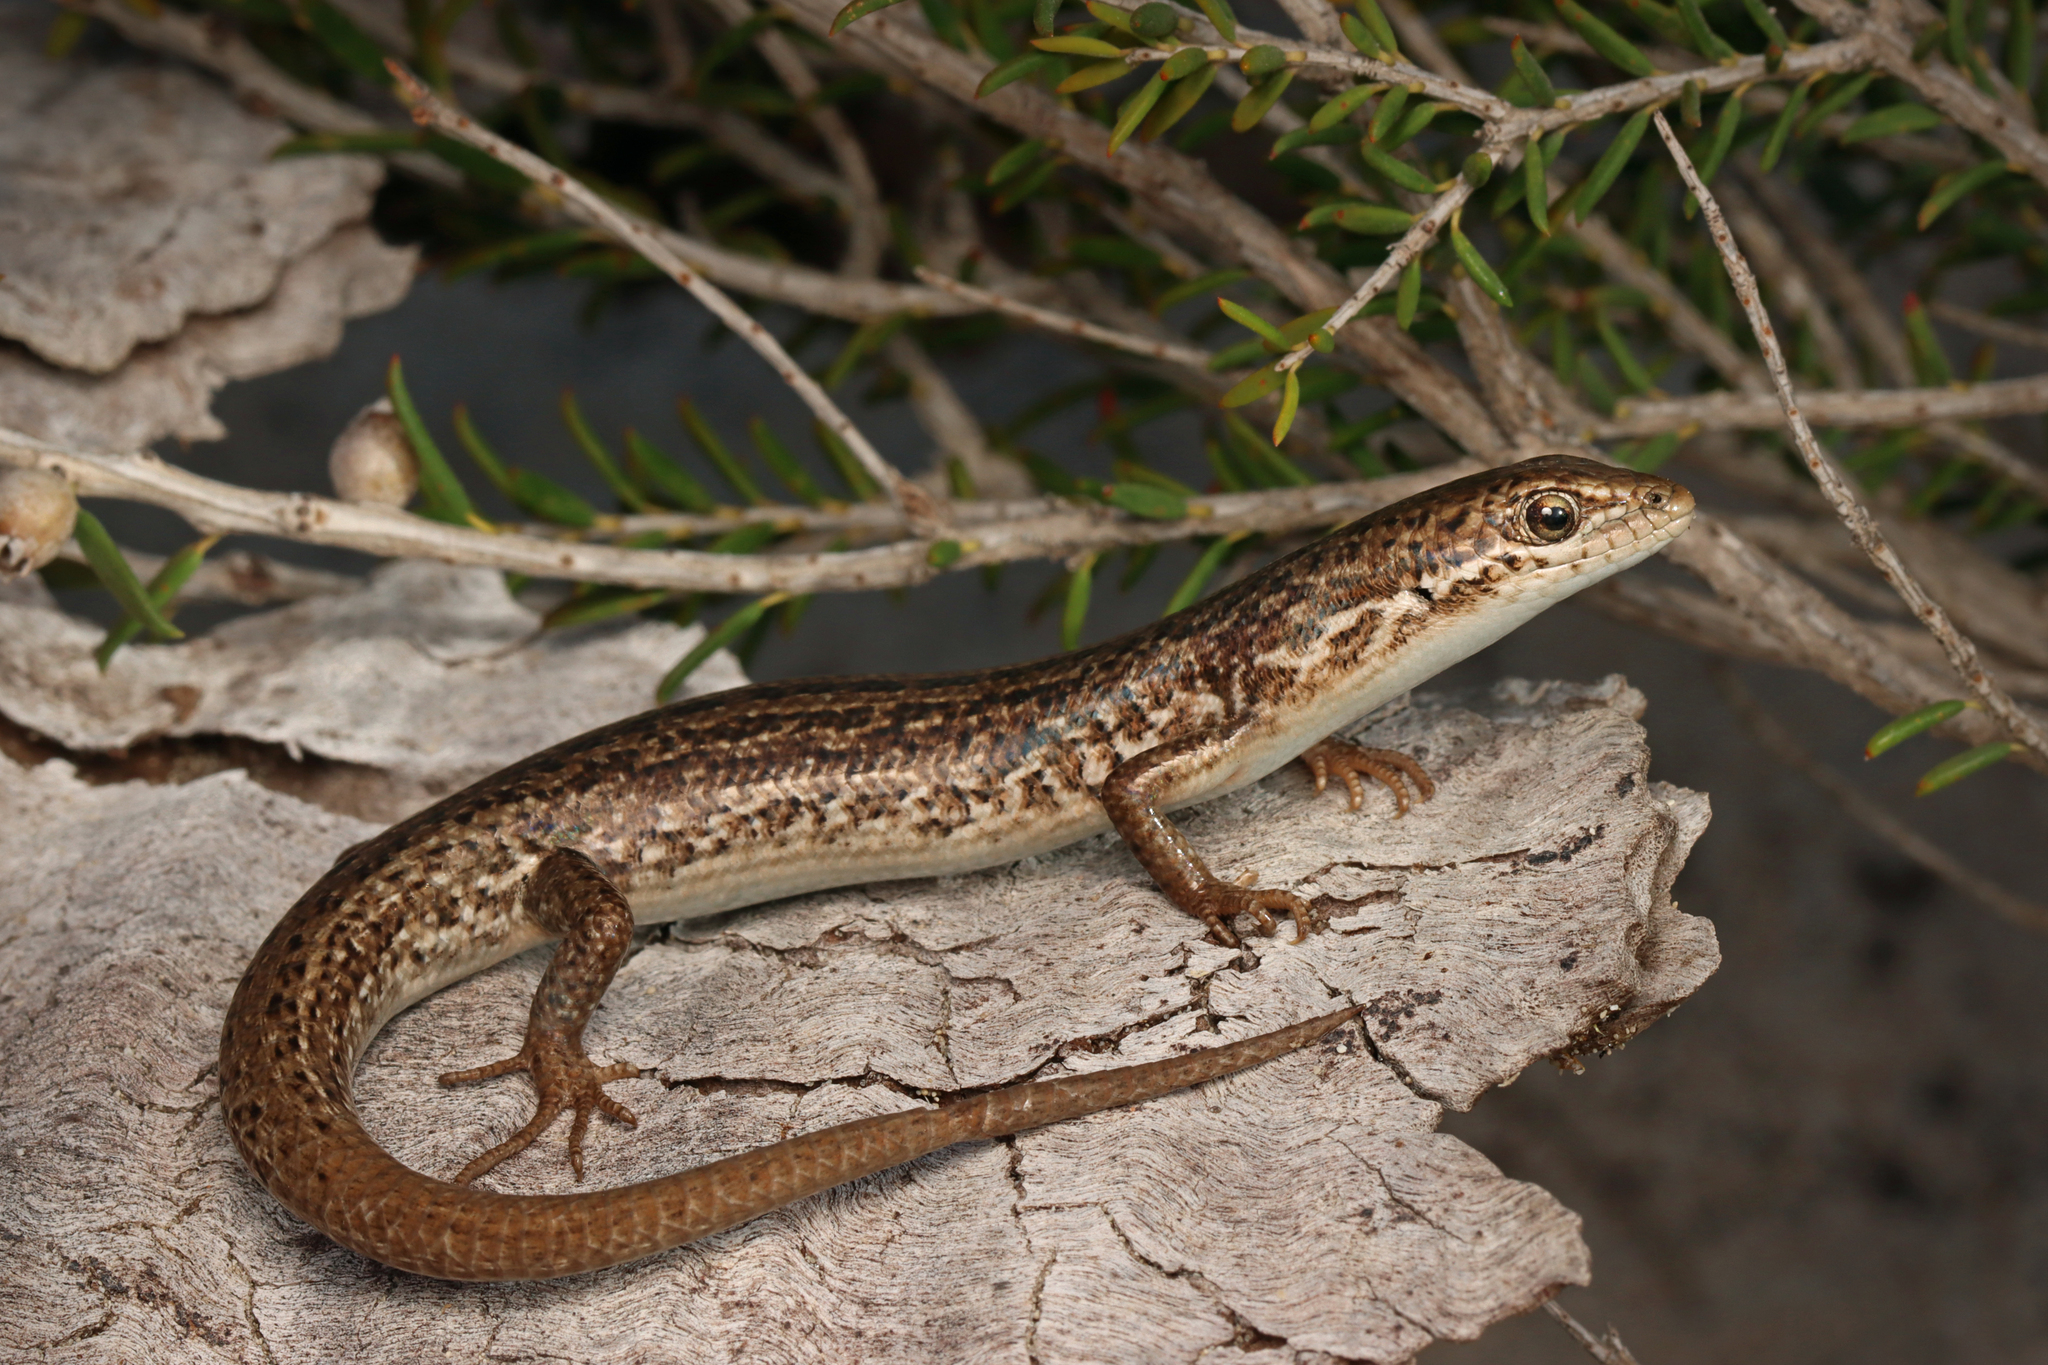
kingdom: Animalia
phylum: Chordata
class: Squamata
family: Scincidae
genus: Morethia
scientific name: Morethia adelaidensis
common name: Saltbush morethia skink
